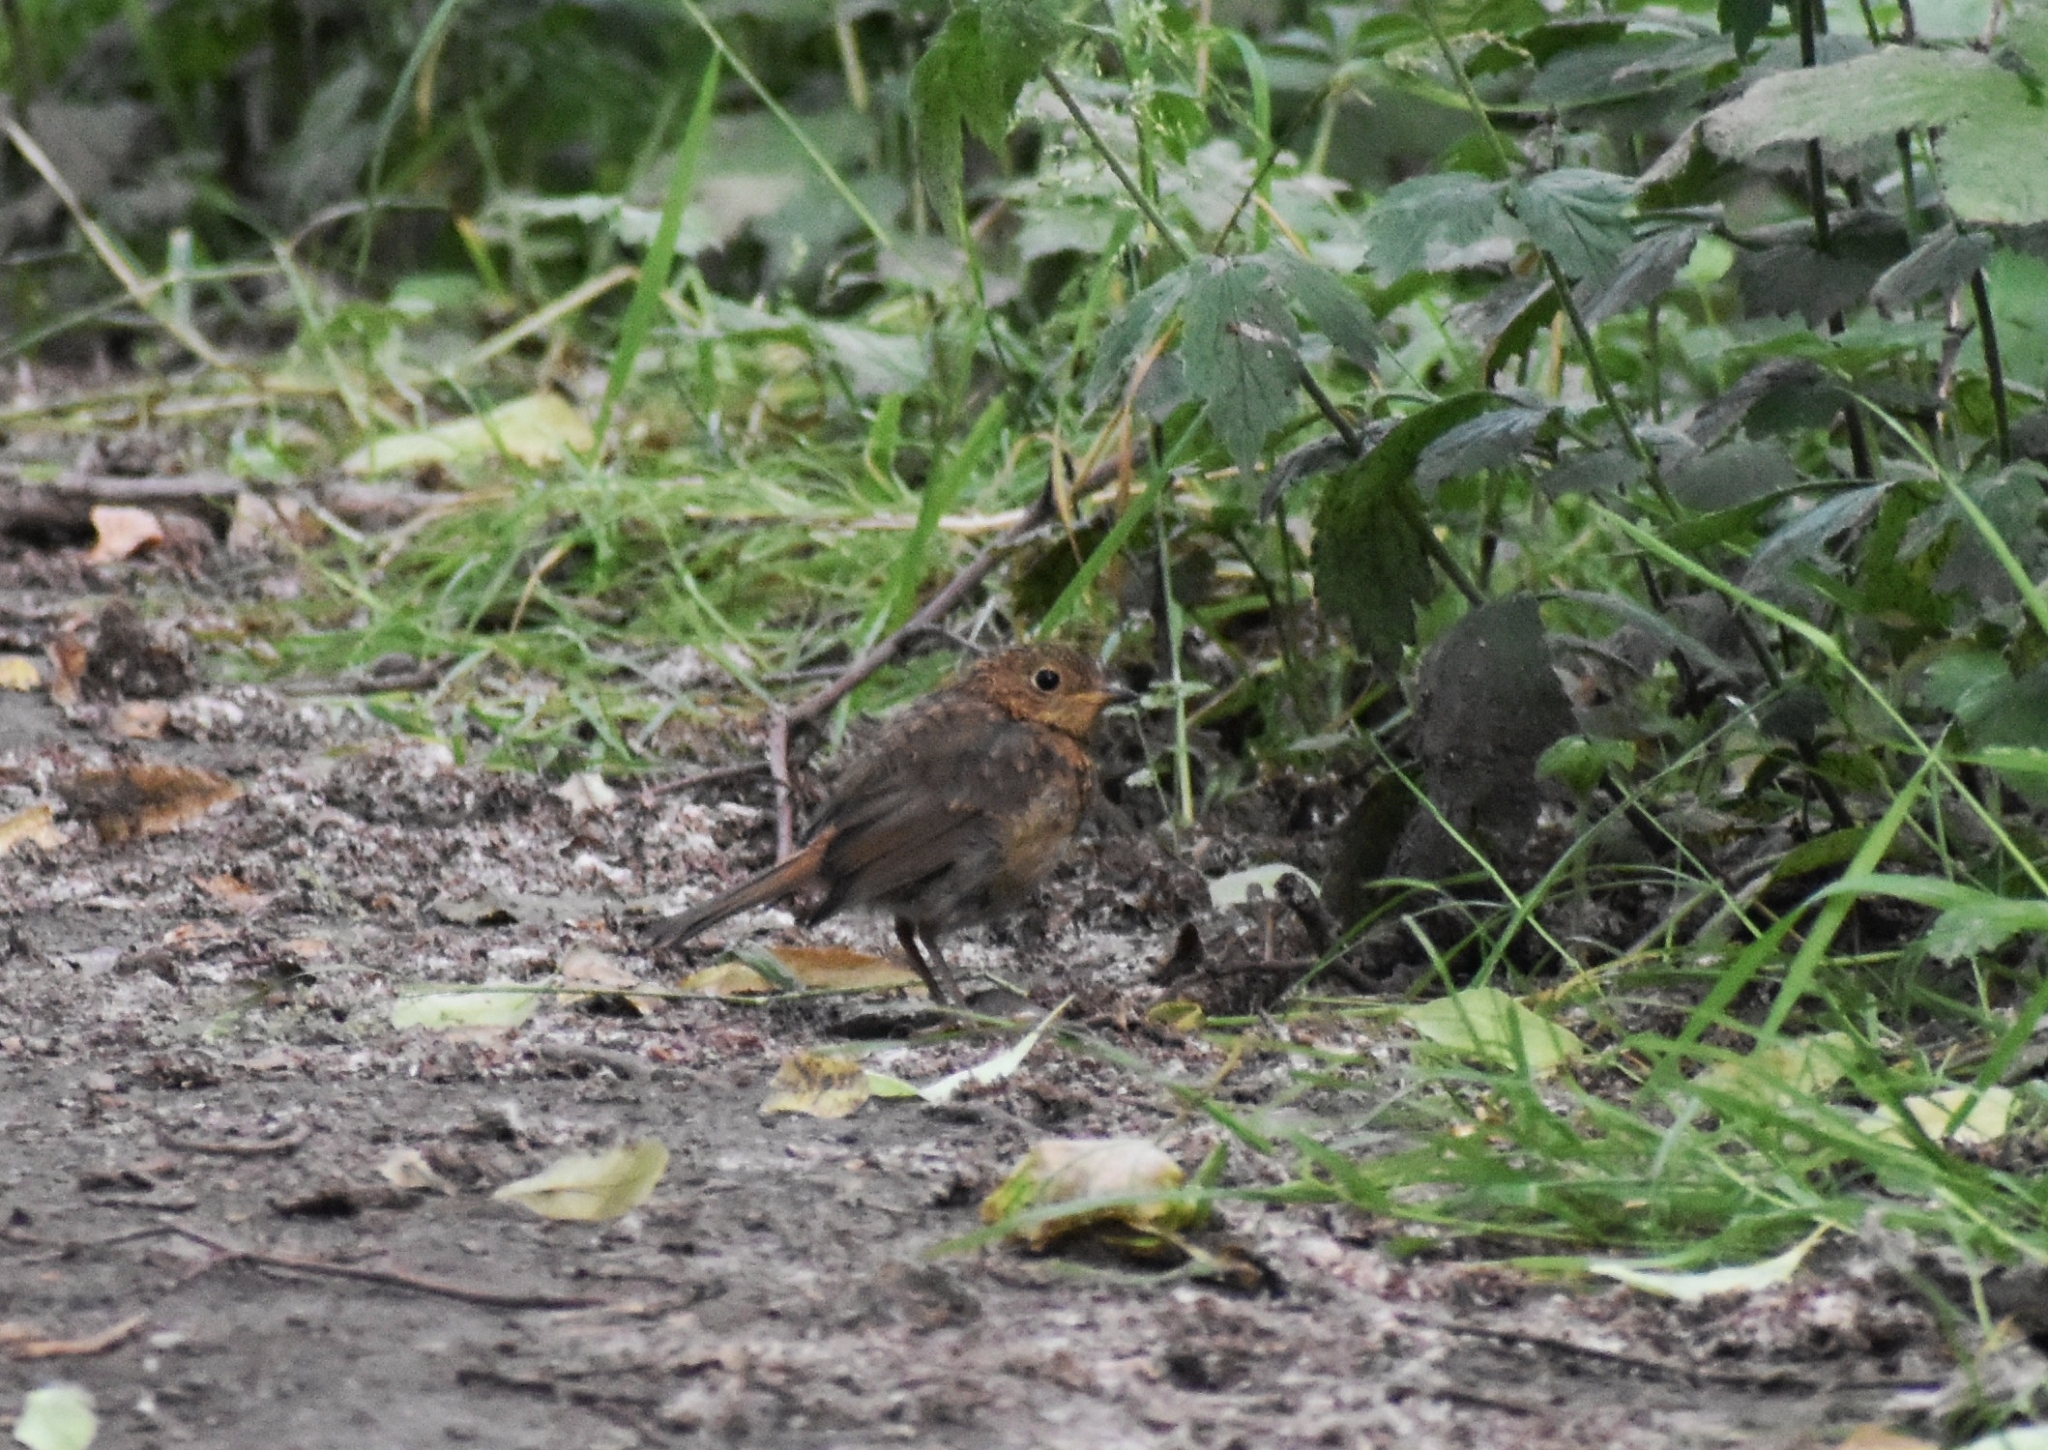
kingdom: Animalia
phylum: Chordata
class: Aves
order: Passeriformes
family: Muscicapidae
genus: Erithacus
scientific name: Erithacus rubecula
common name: European robin
